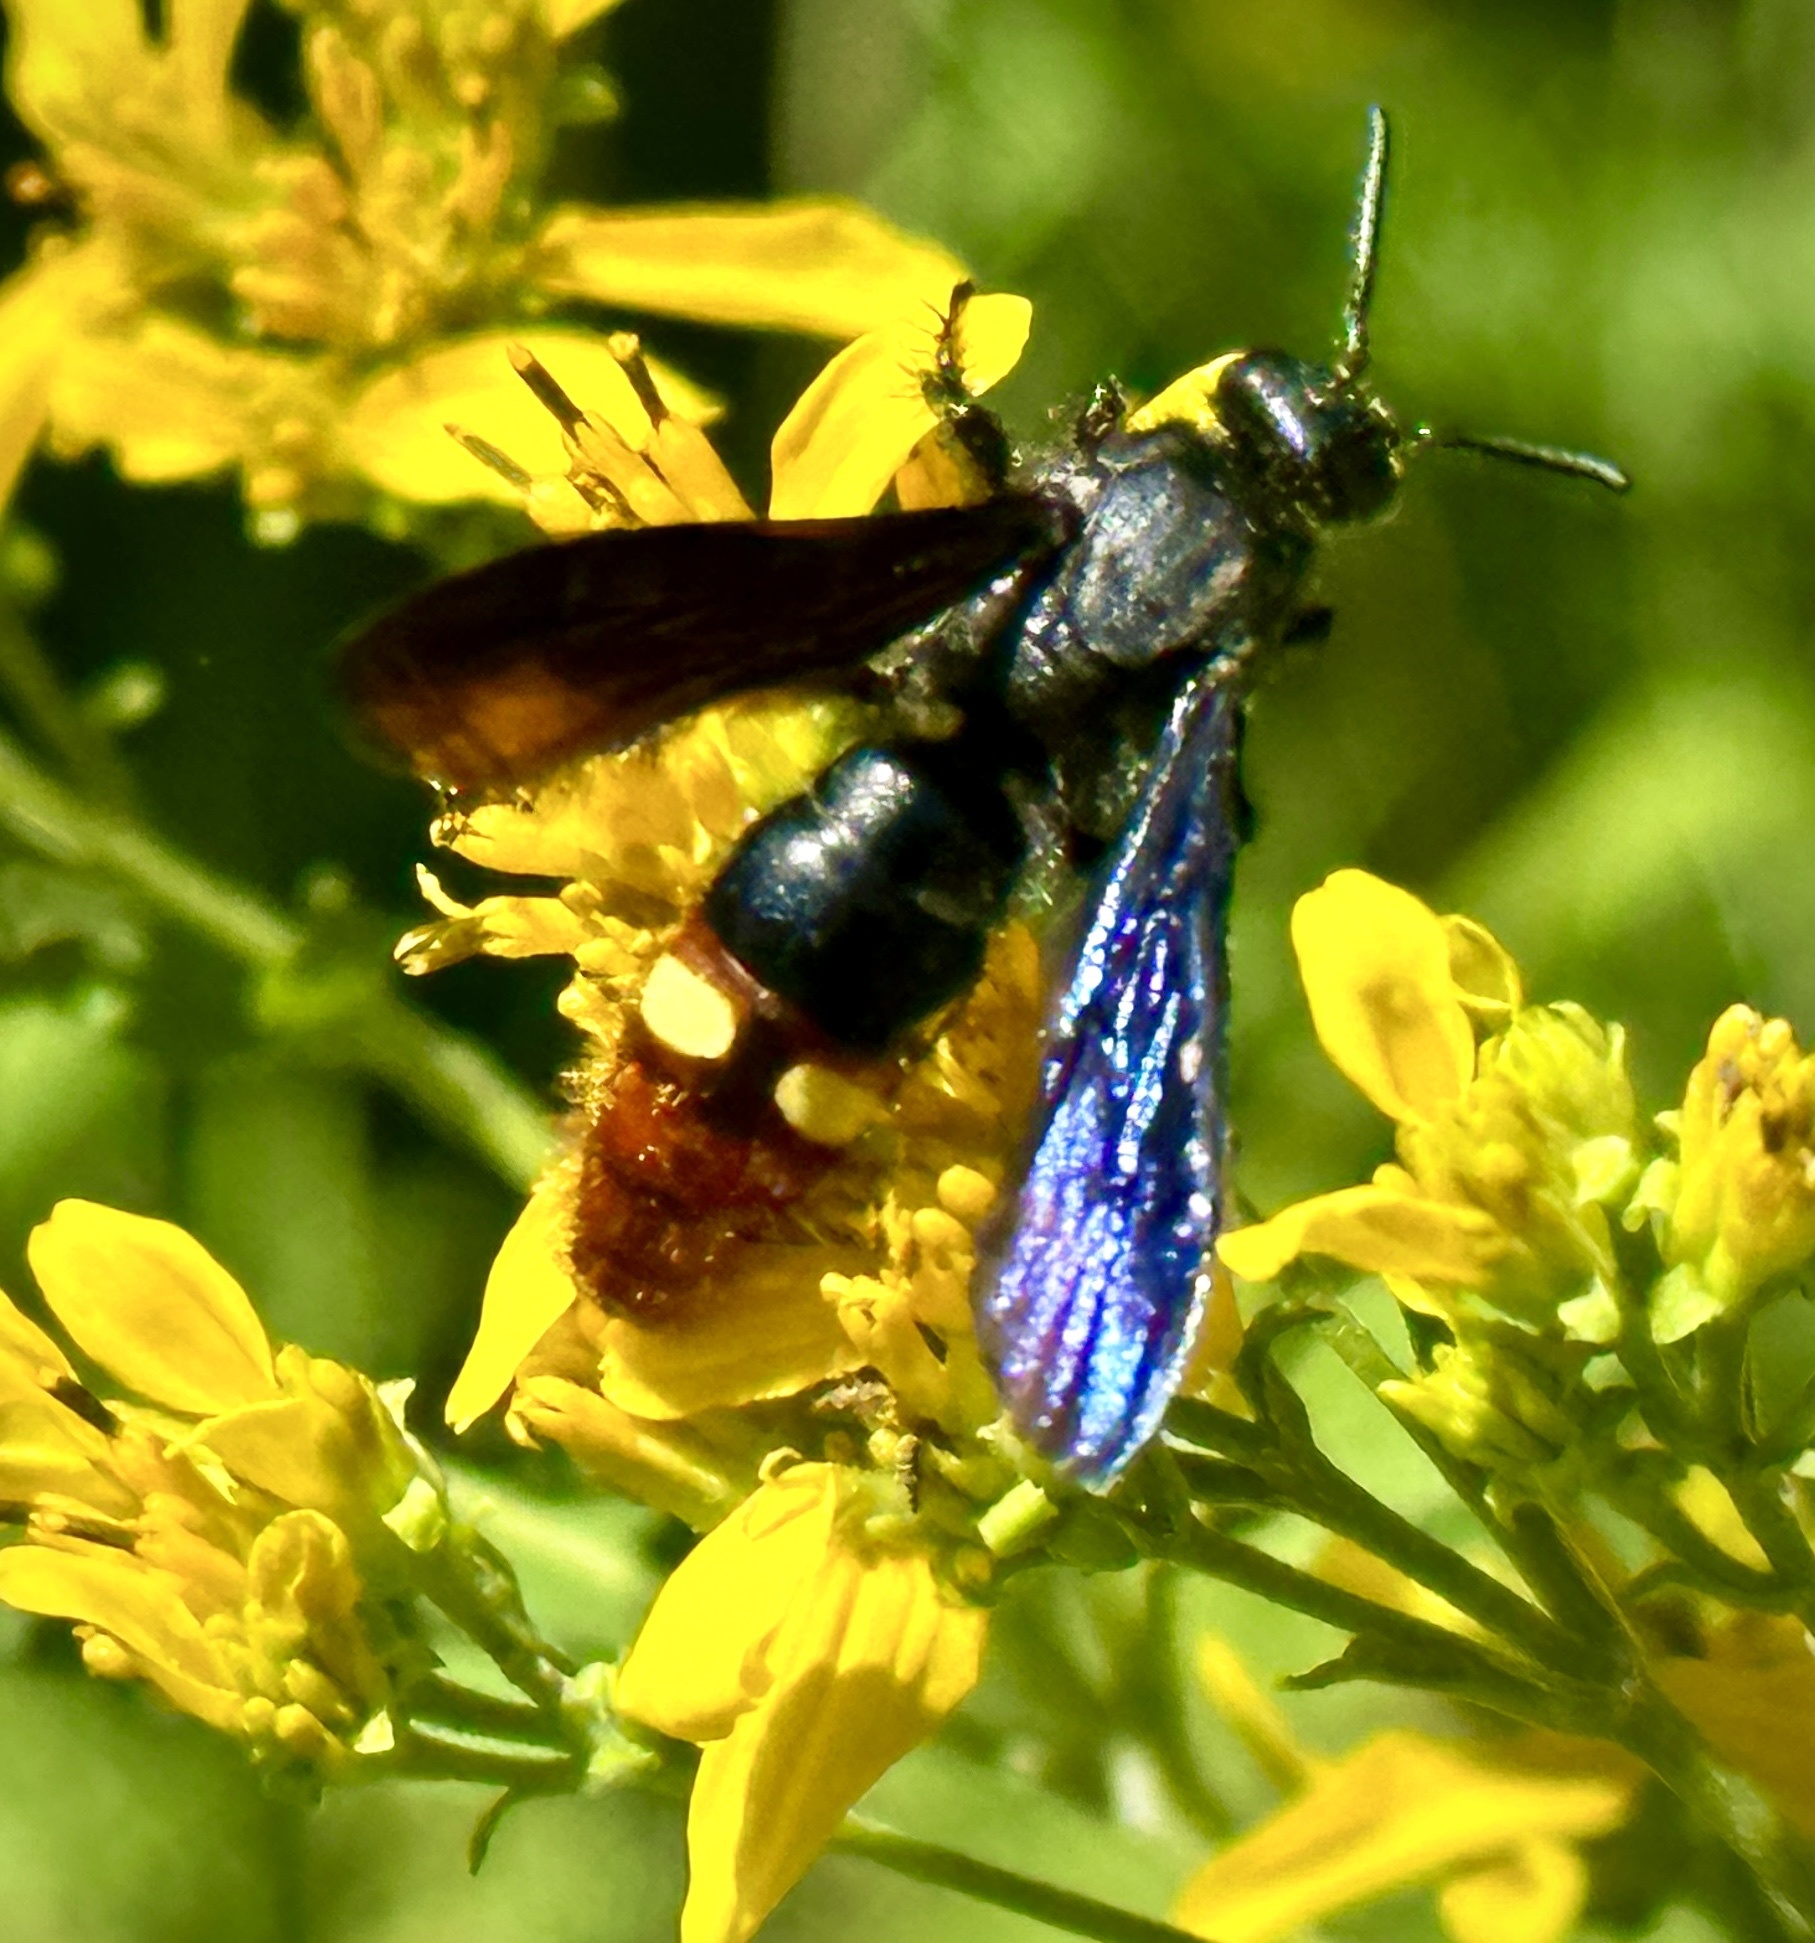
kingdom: Animalia
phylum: Arthropoda
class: Insecta
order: Hymenoptera
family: Scoliidae
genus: Scolia
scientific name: Scolia dubia
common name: Blue-winged scoliid wasp
